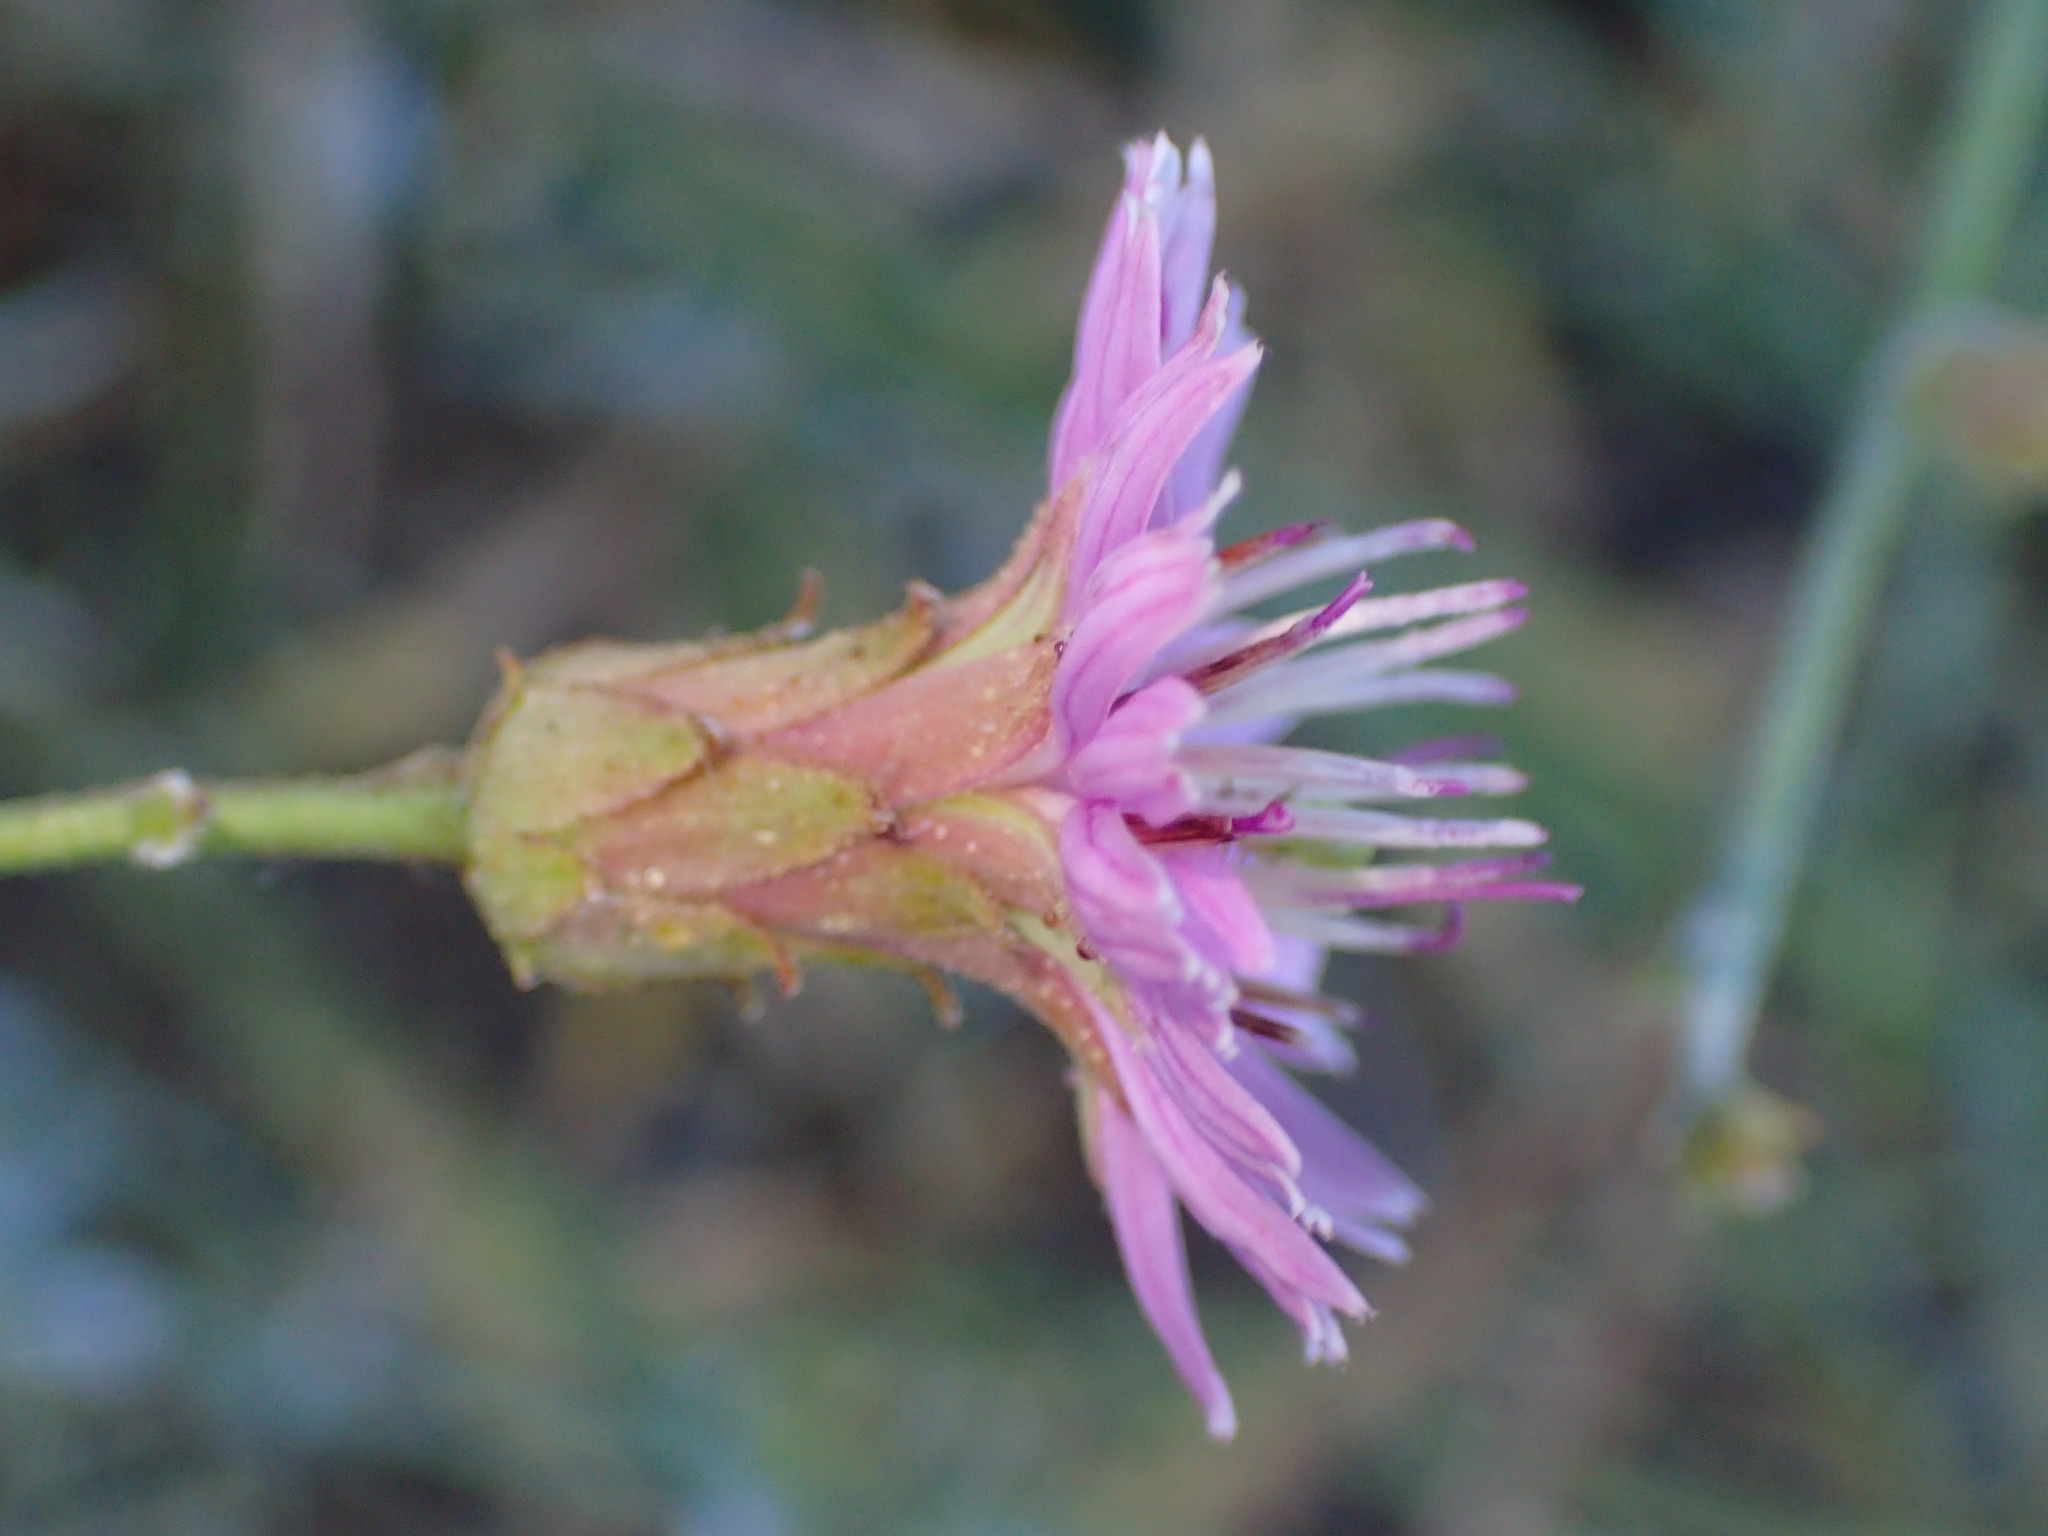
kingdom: Plantae
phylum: Tracheophyta
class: Magnoliopsida
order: Asterales
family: Asteraceae
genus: Stephanomeria
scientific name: Stephanomeria cichoriacea
